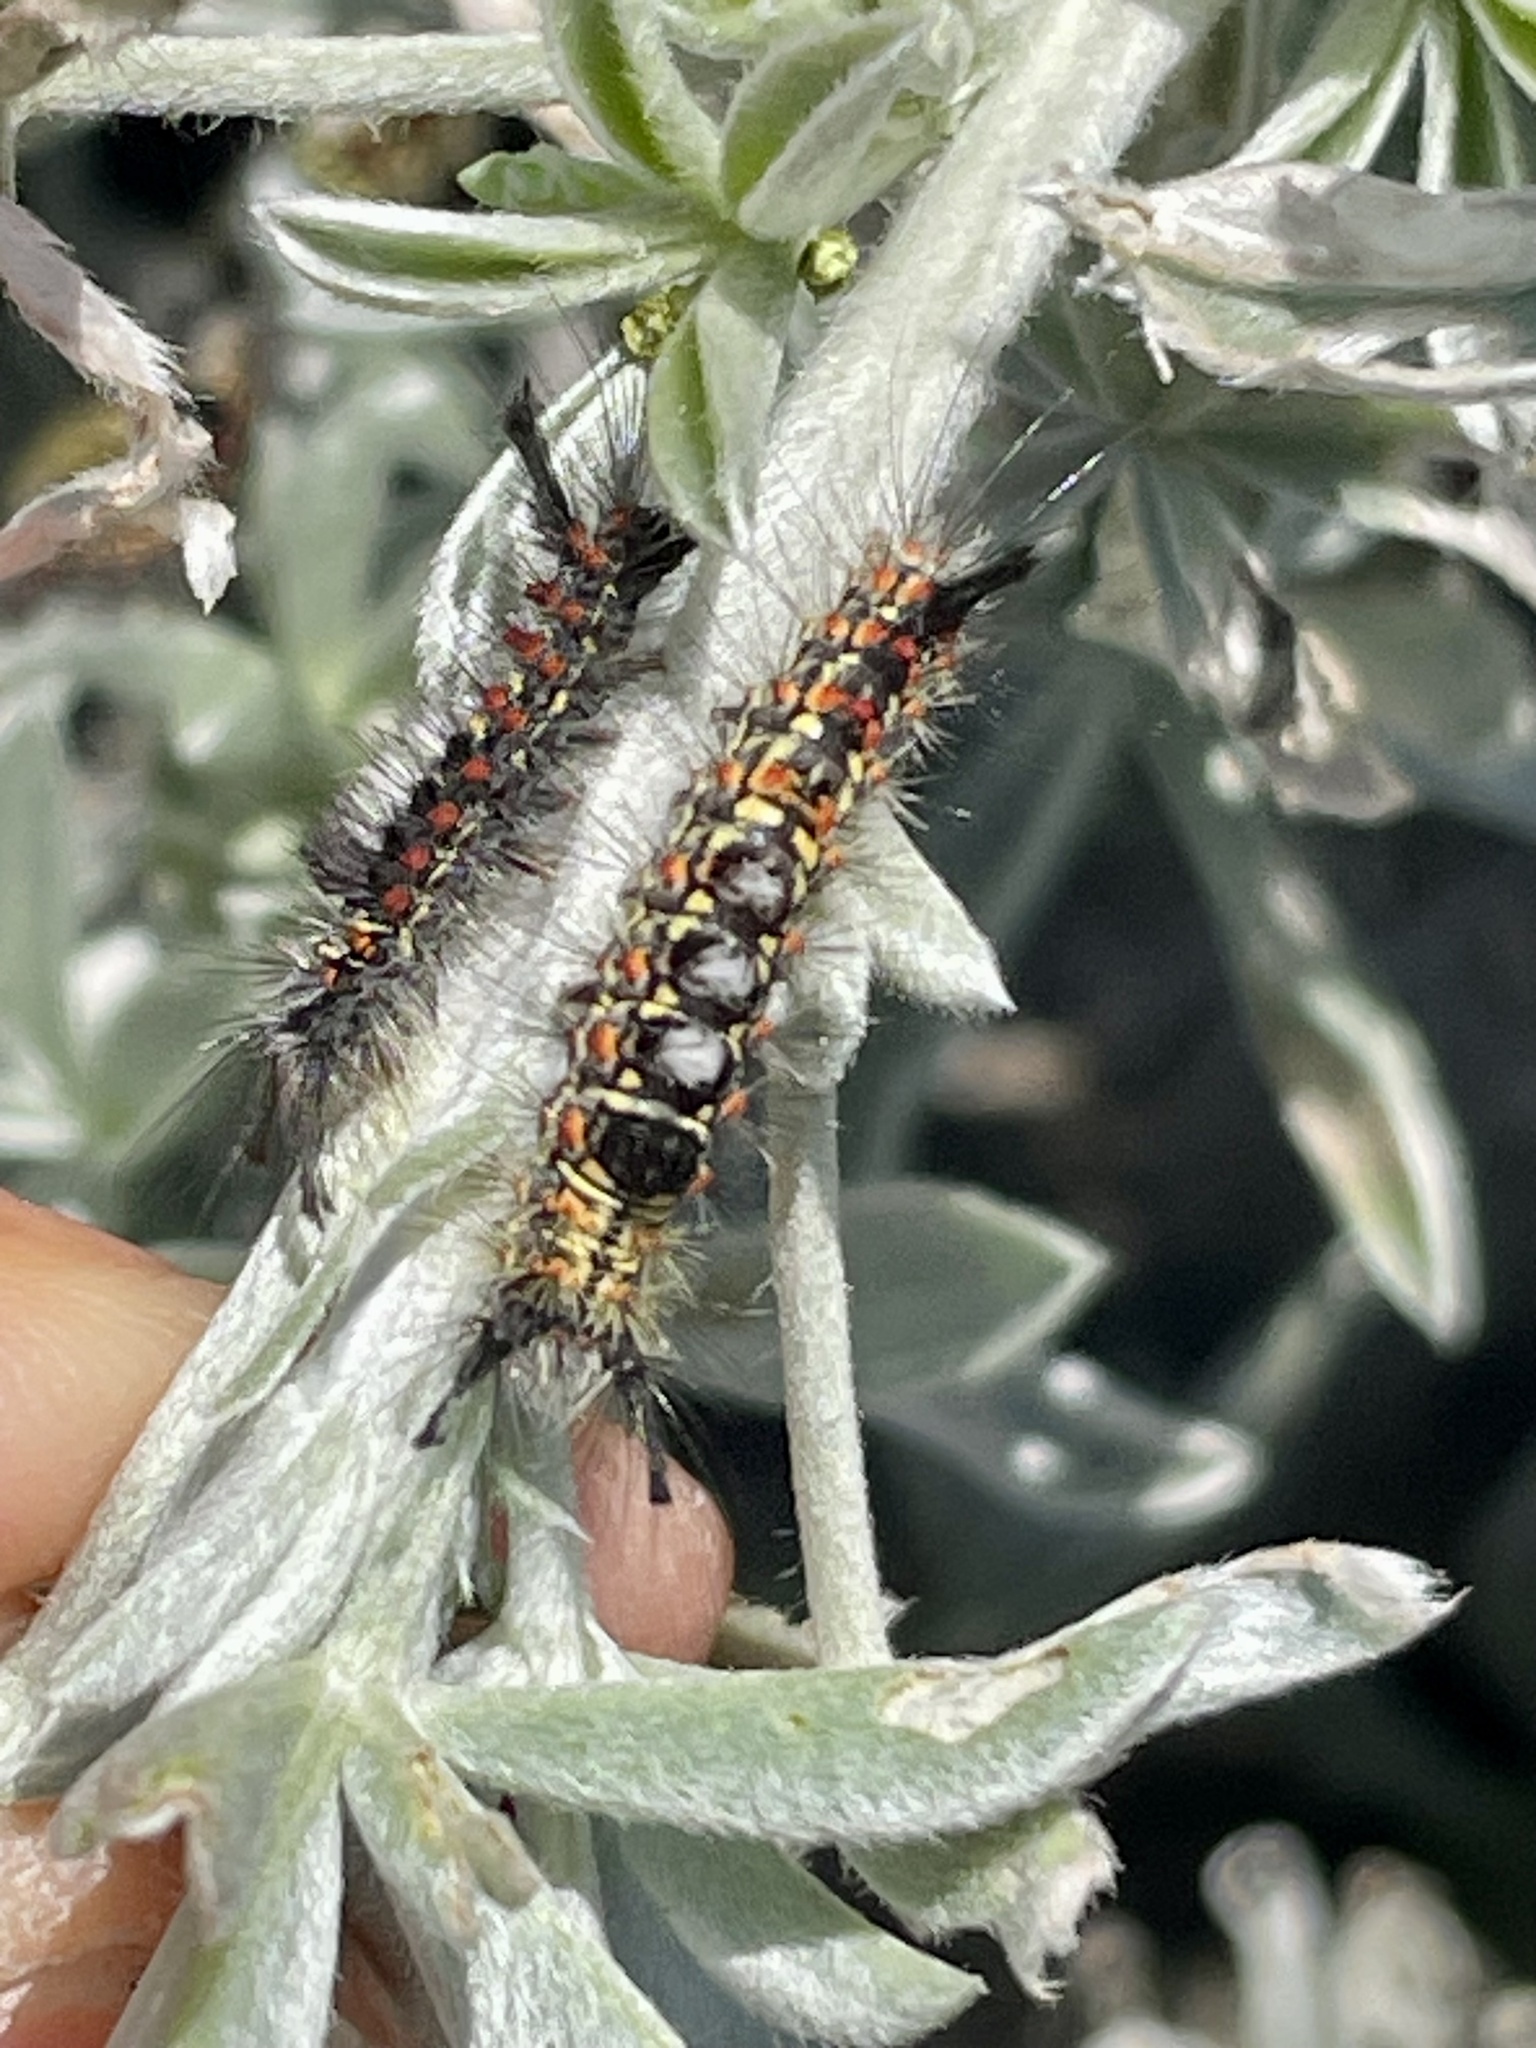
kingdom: Animalia
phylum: Arthropoda
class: Insecta
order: Lepidoptera
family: Erebidae
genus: Orgyia
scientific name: Orgyia vetusta
